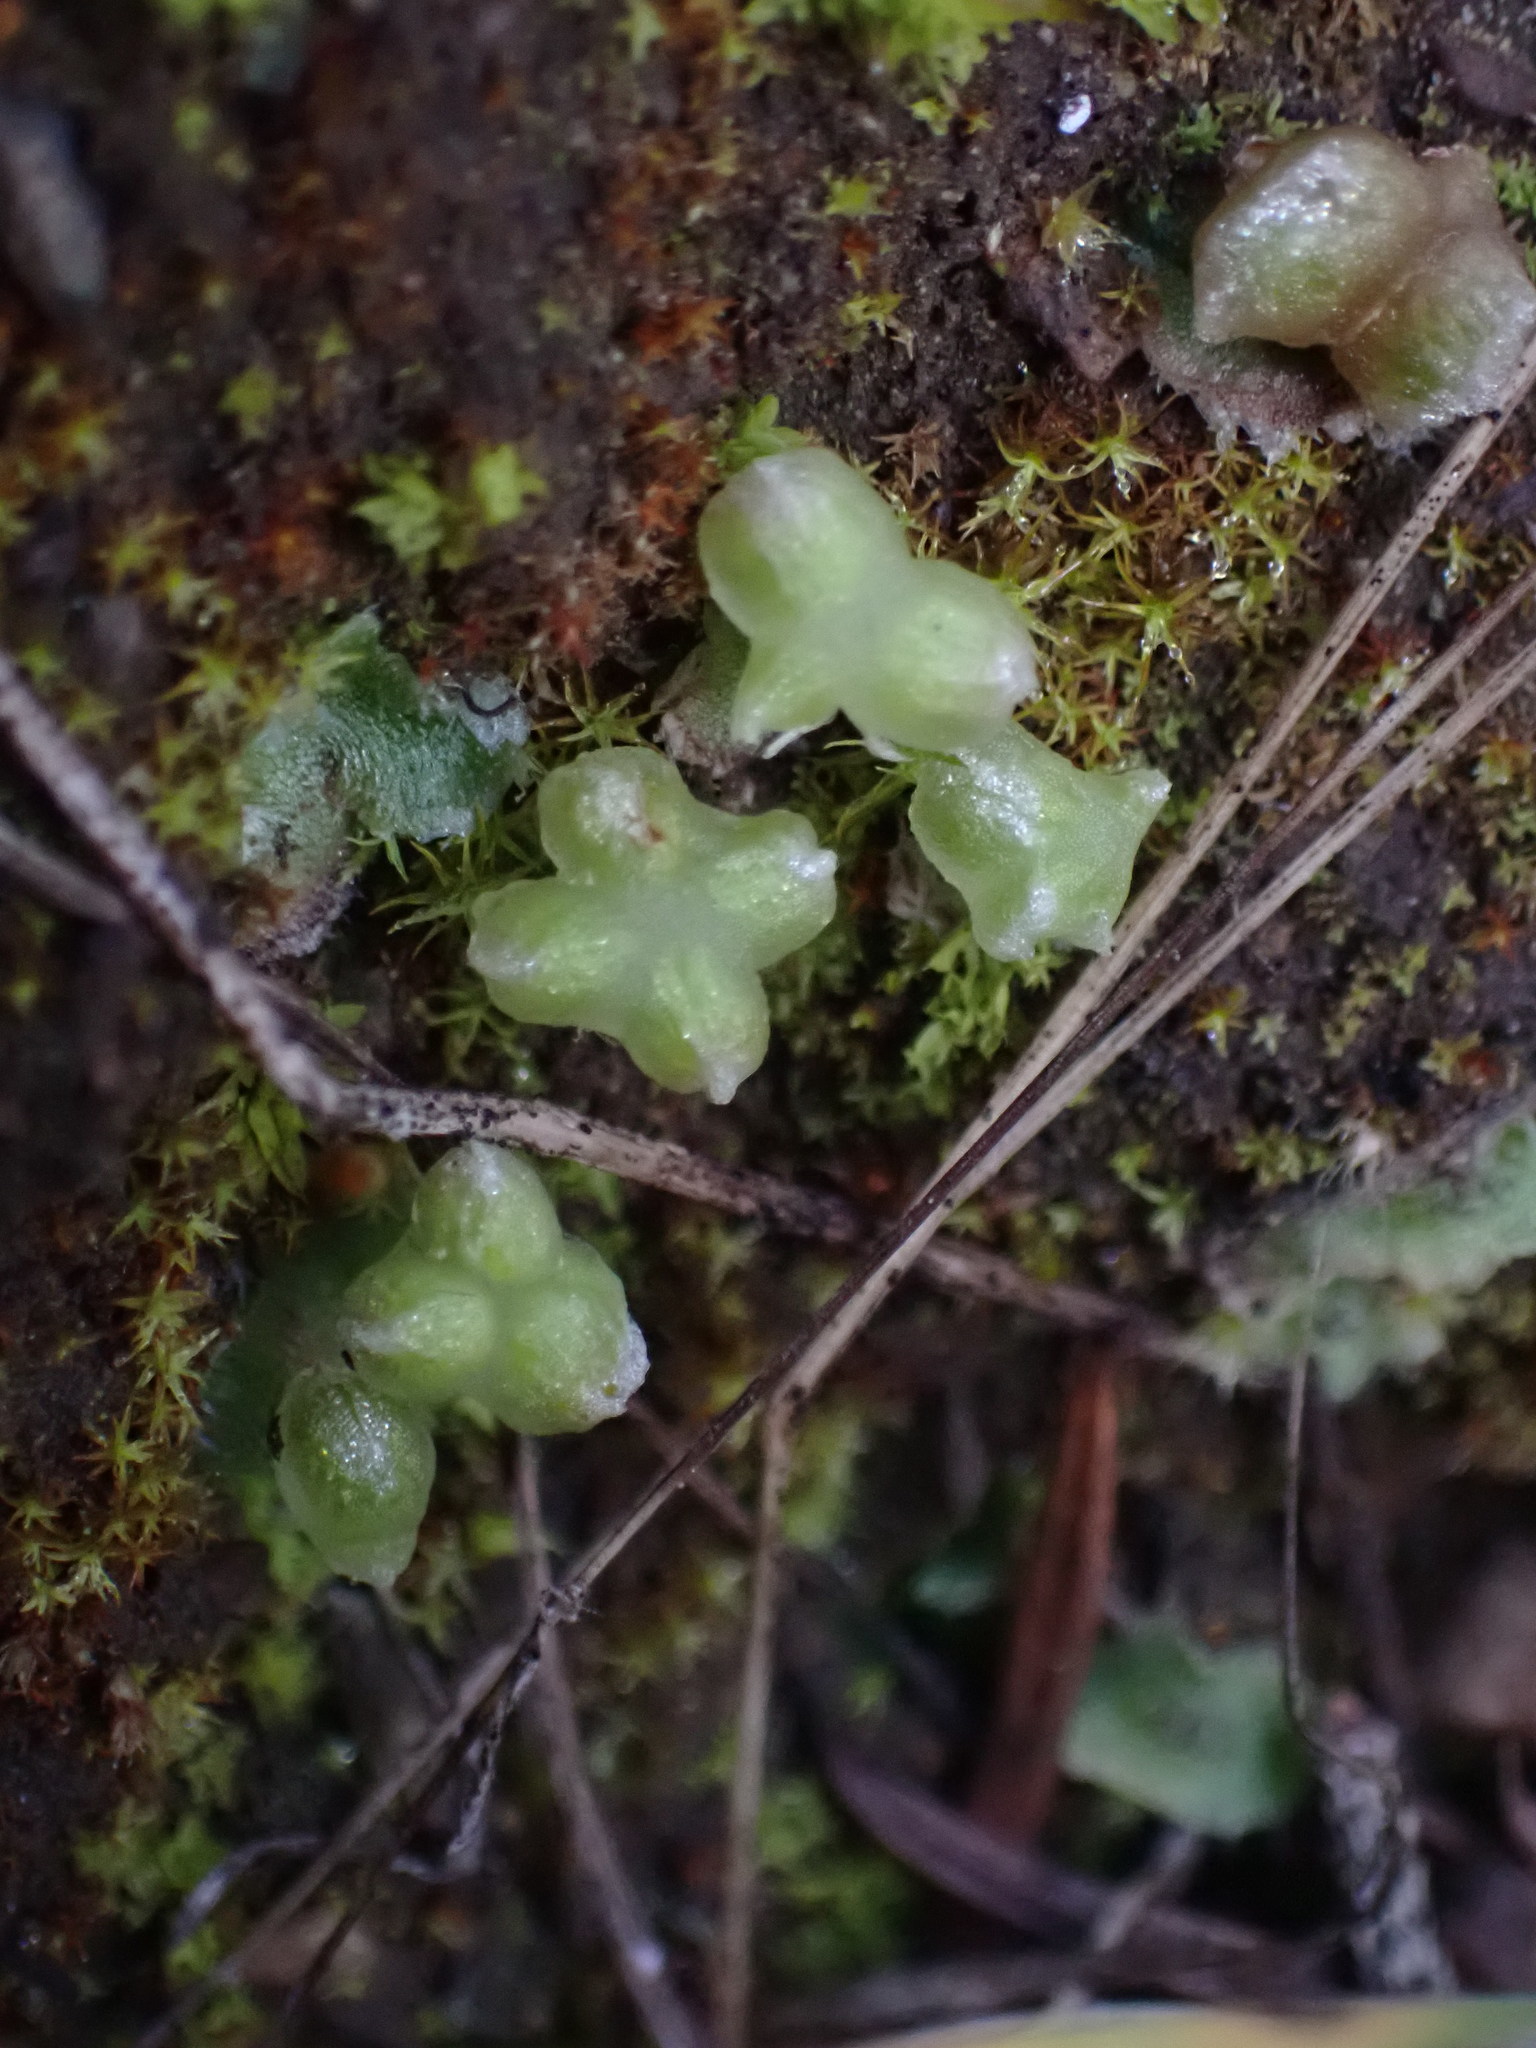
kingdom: Plantae
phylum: Marchantiophyta
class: Marchantiopsida
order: Marchantiales
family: Cleveaceae
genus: Clevea
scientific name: Clevea hyalina
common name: Hyaline liverwort
